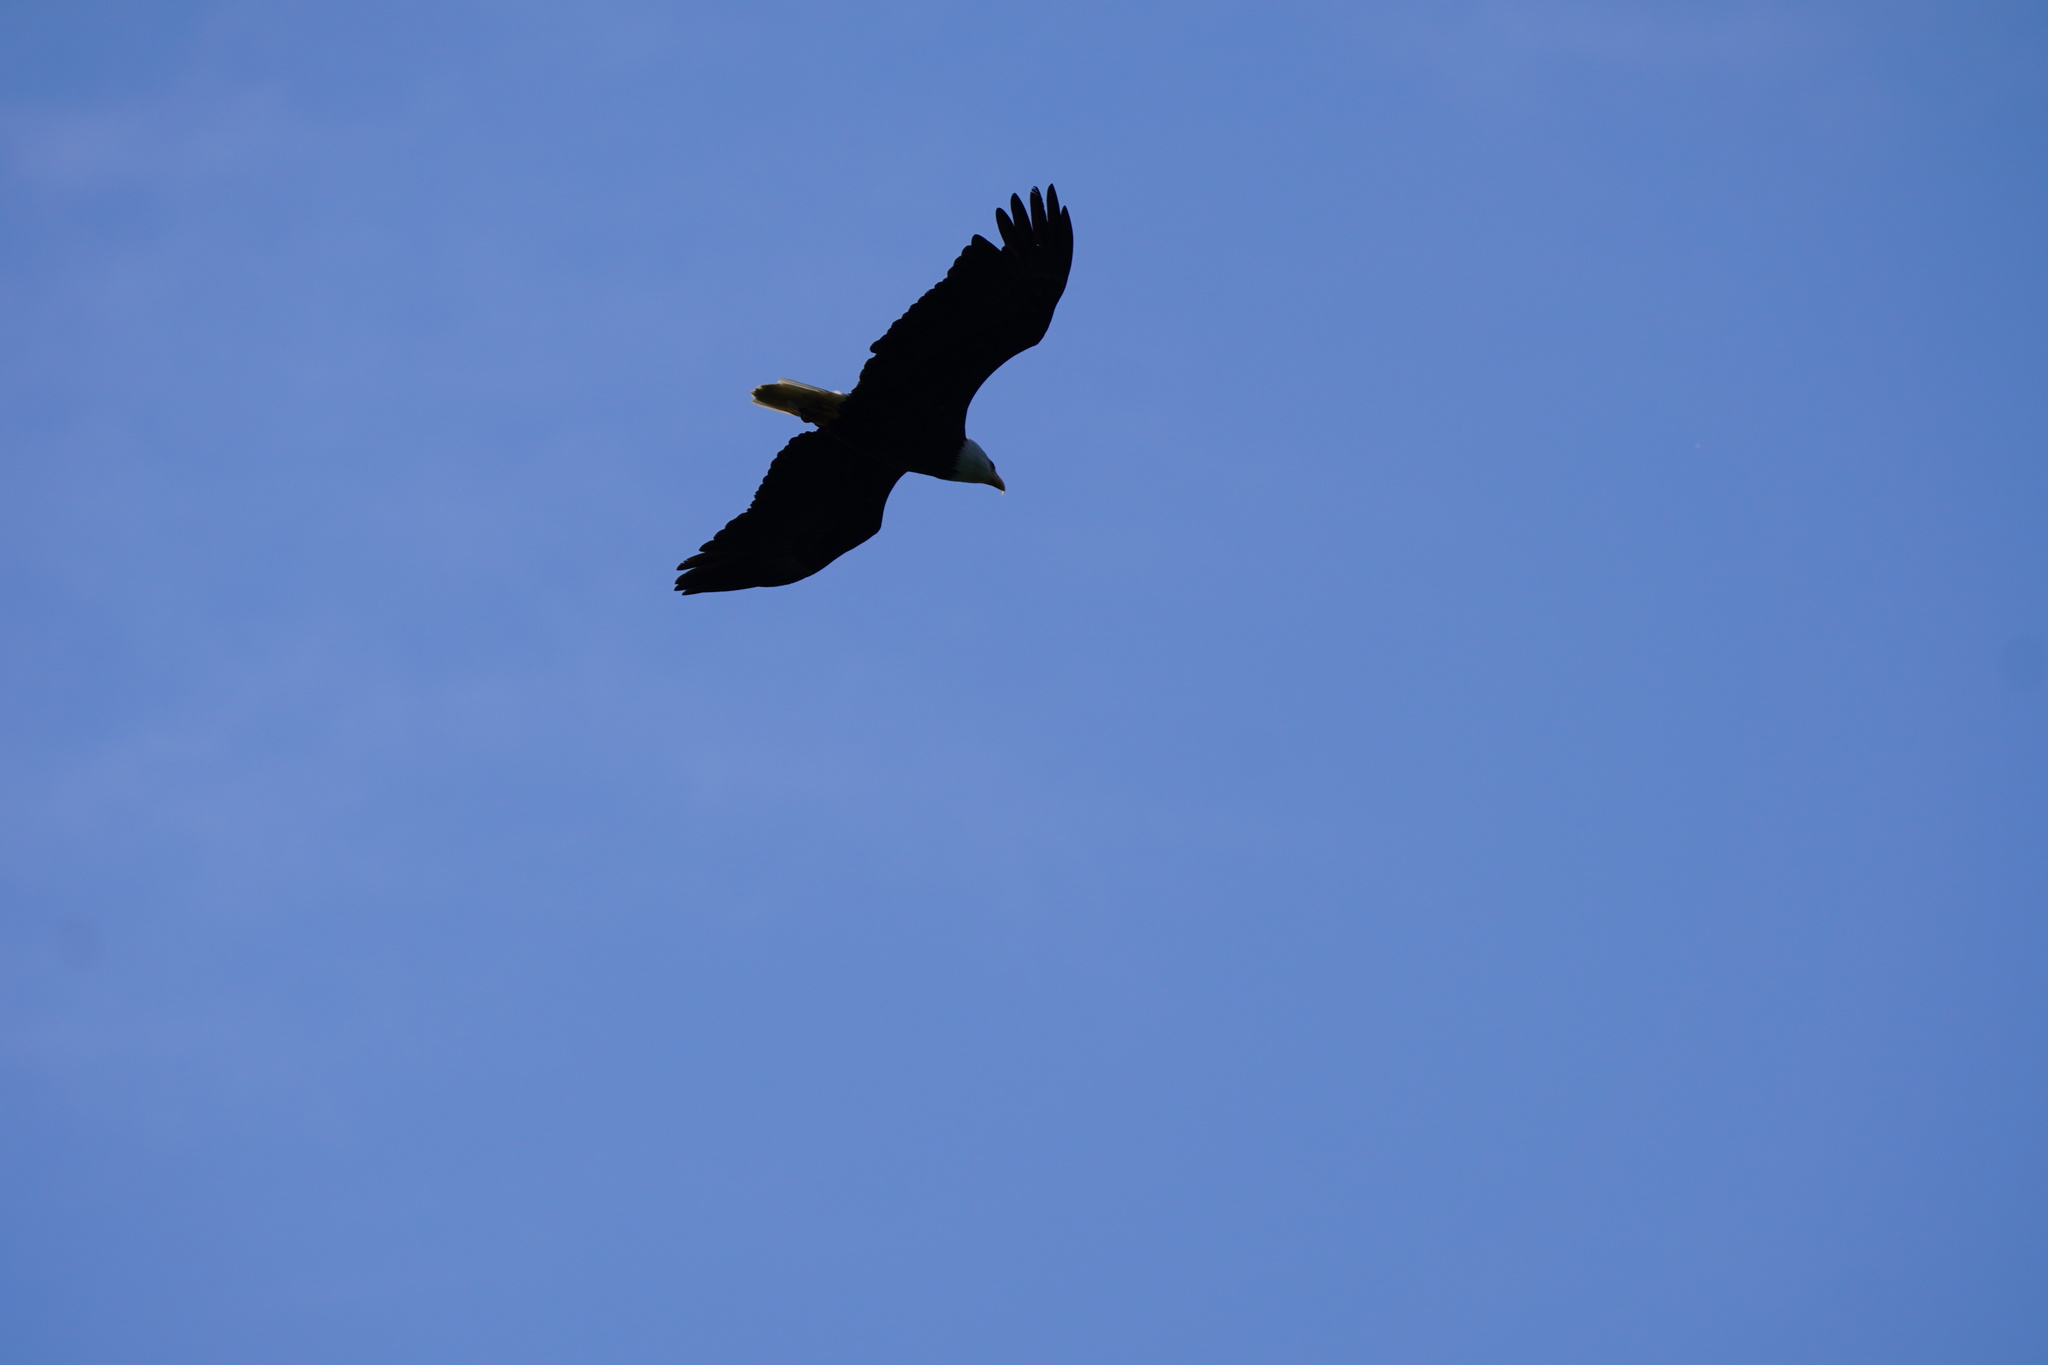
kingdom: Animalia
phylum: Chordata
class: Aves
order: Accipitriformes
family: Accipitridae
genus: Haliaeetus
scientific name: Haliaeetus leucocephalus
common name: Bald eagle
